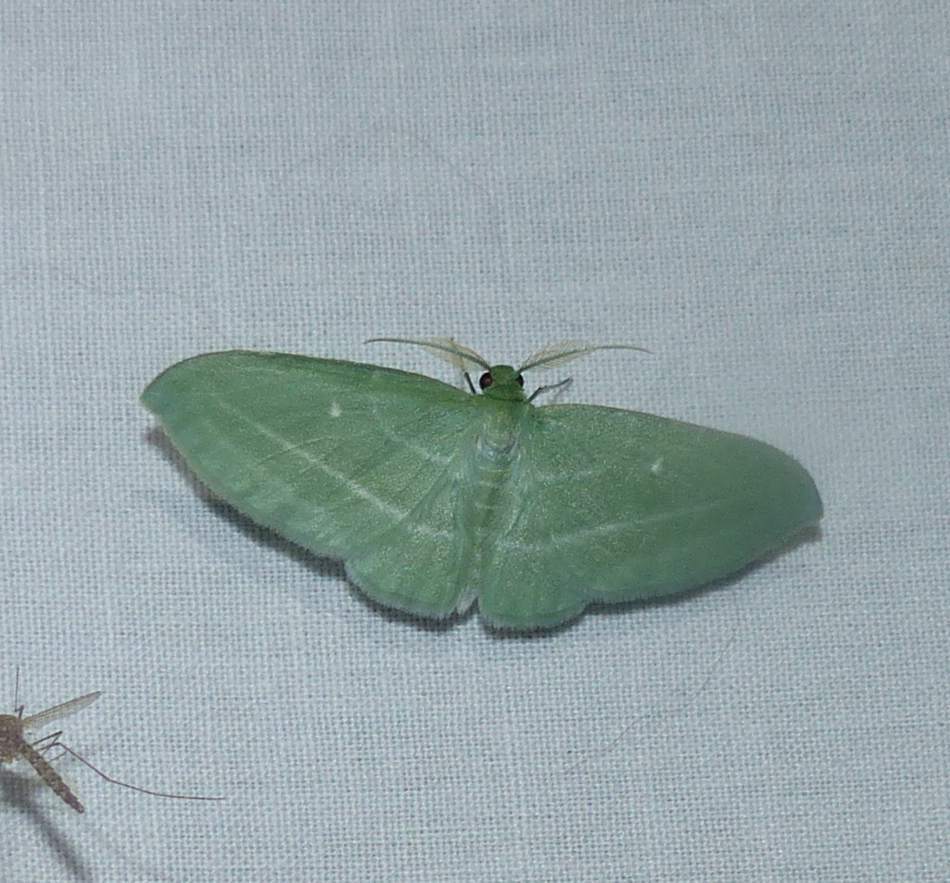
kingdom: Animalia
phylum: Arthropoda
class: Insecta
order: Lepidoptera
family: Geometridae
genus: Dyspteris
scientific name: Dyspteris abortivaria
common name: Bad-wing
